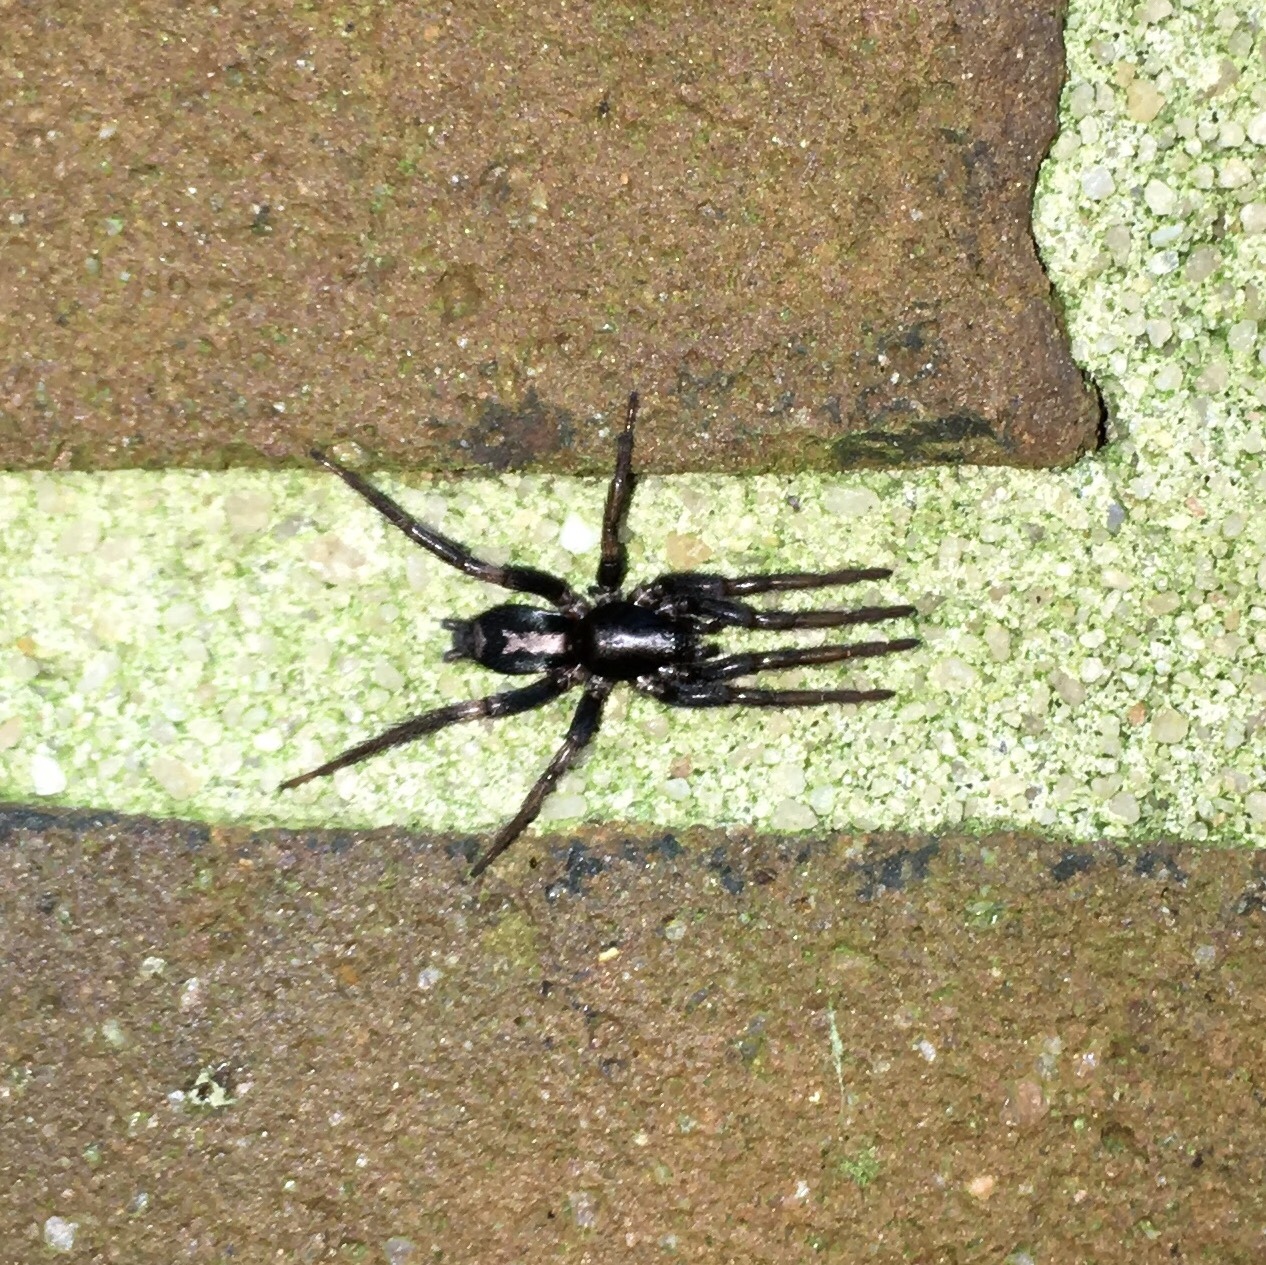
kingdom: Animalia
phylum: Arthropoda
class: Arachnida
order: Araneae
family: Gnaphosidae
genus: Herpyllus
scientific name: Herpyllus ecclesiasticus
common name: Eastern parson spider
